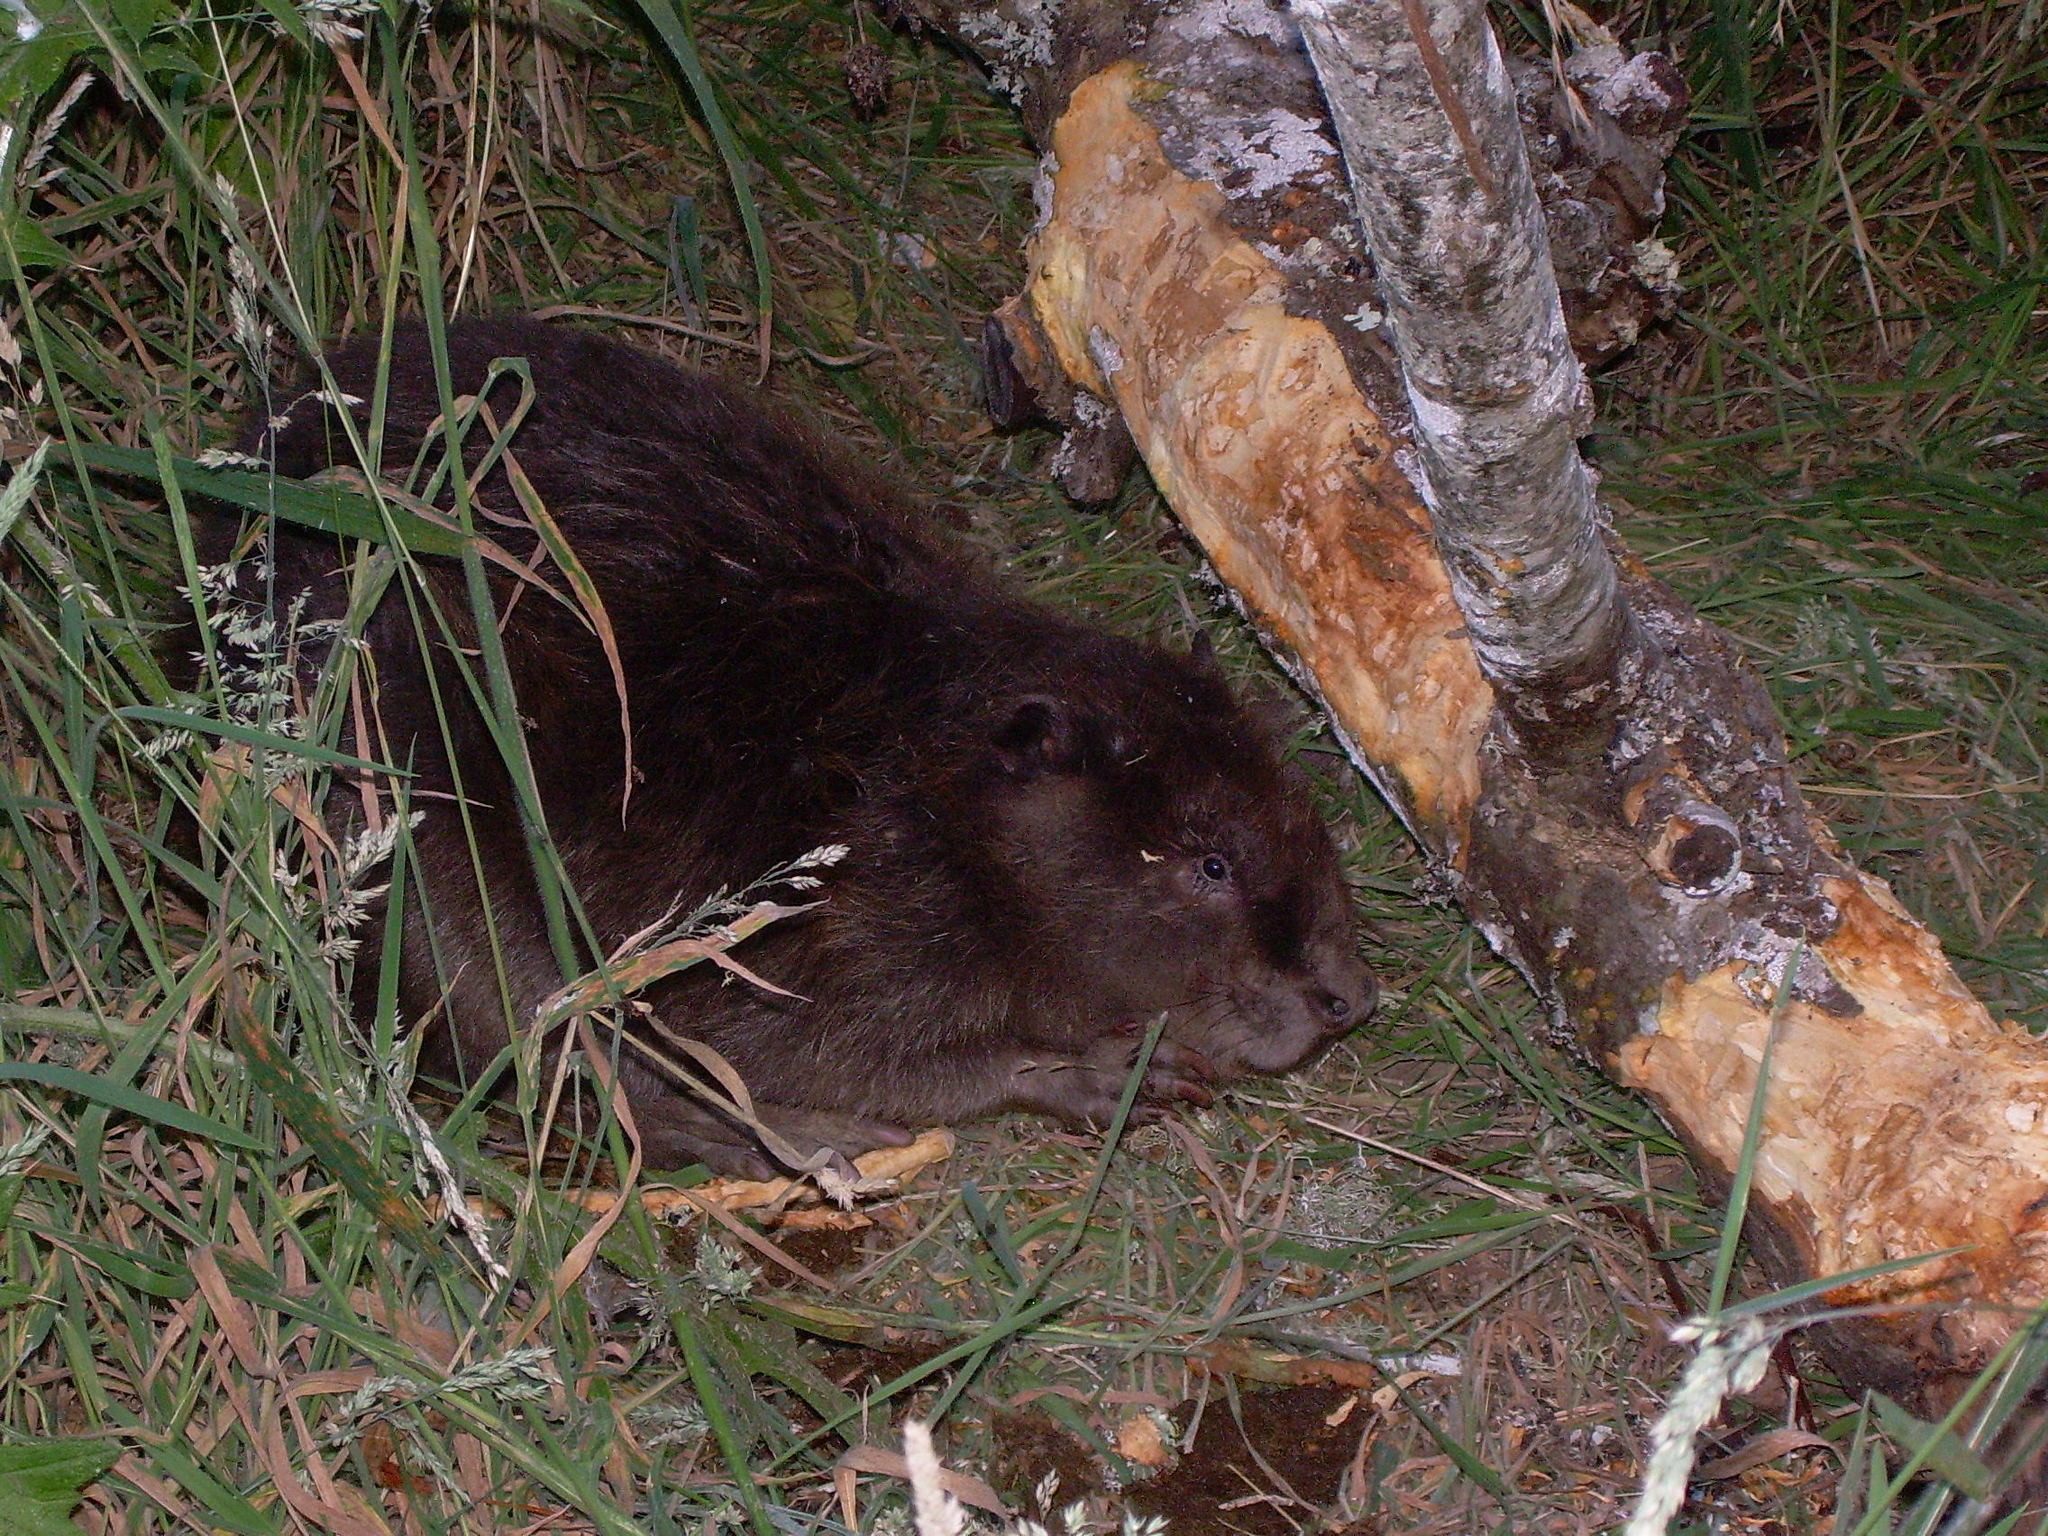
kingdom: Animalia
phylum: Chordata
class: Mammalia
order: Rodentia
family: Castoridae
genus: Castor
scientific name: Castor canadensis
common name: American beaver
